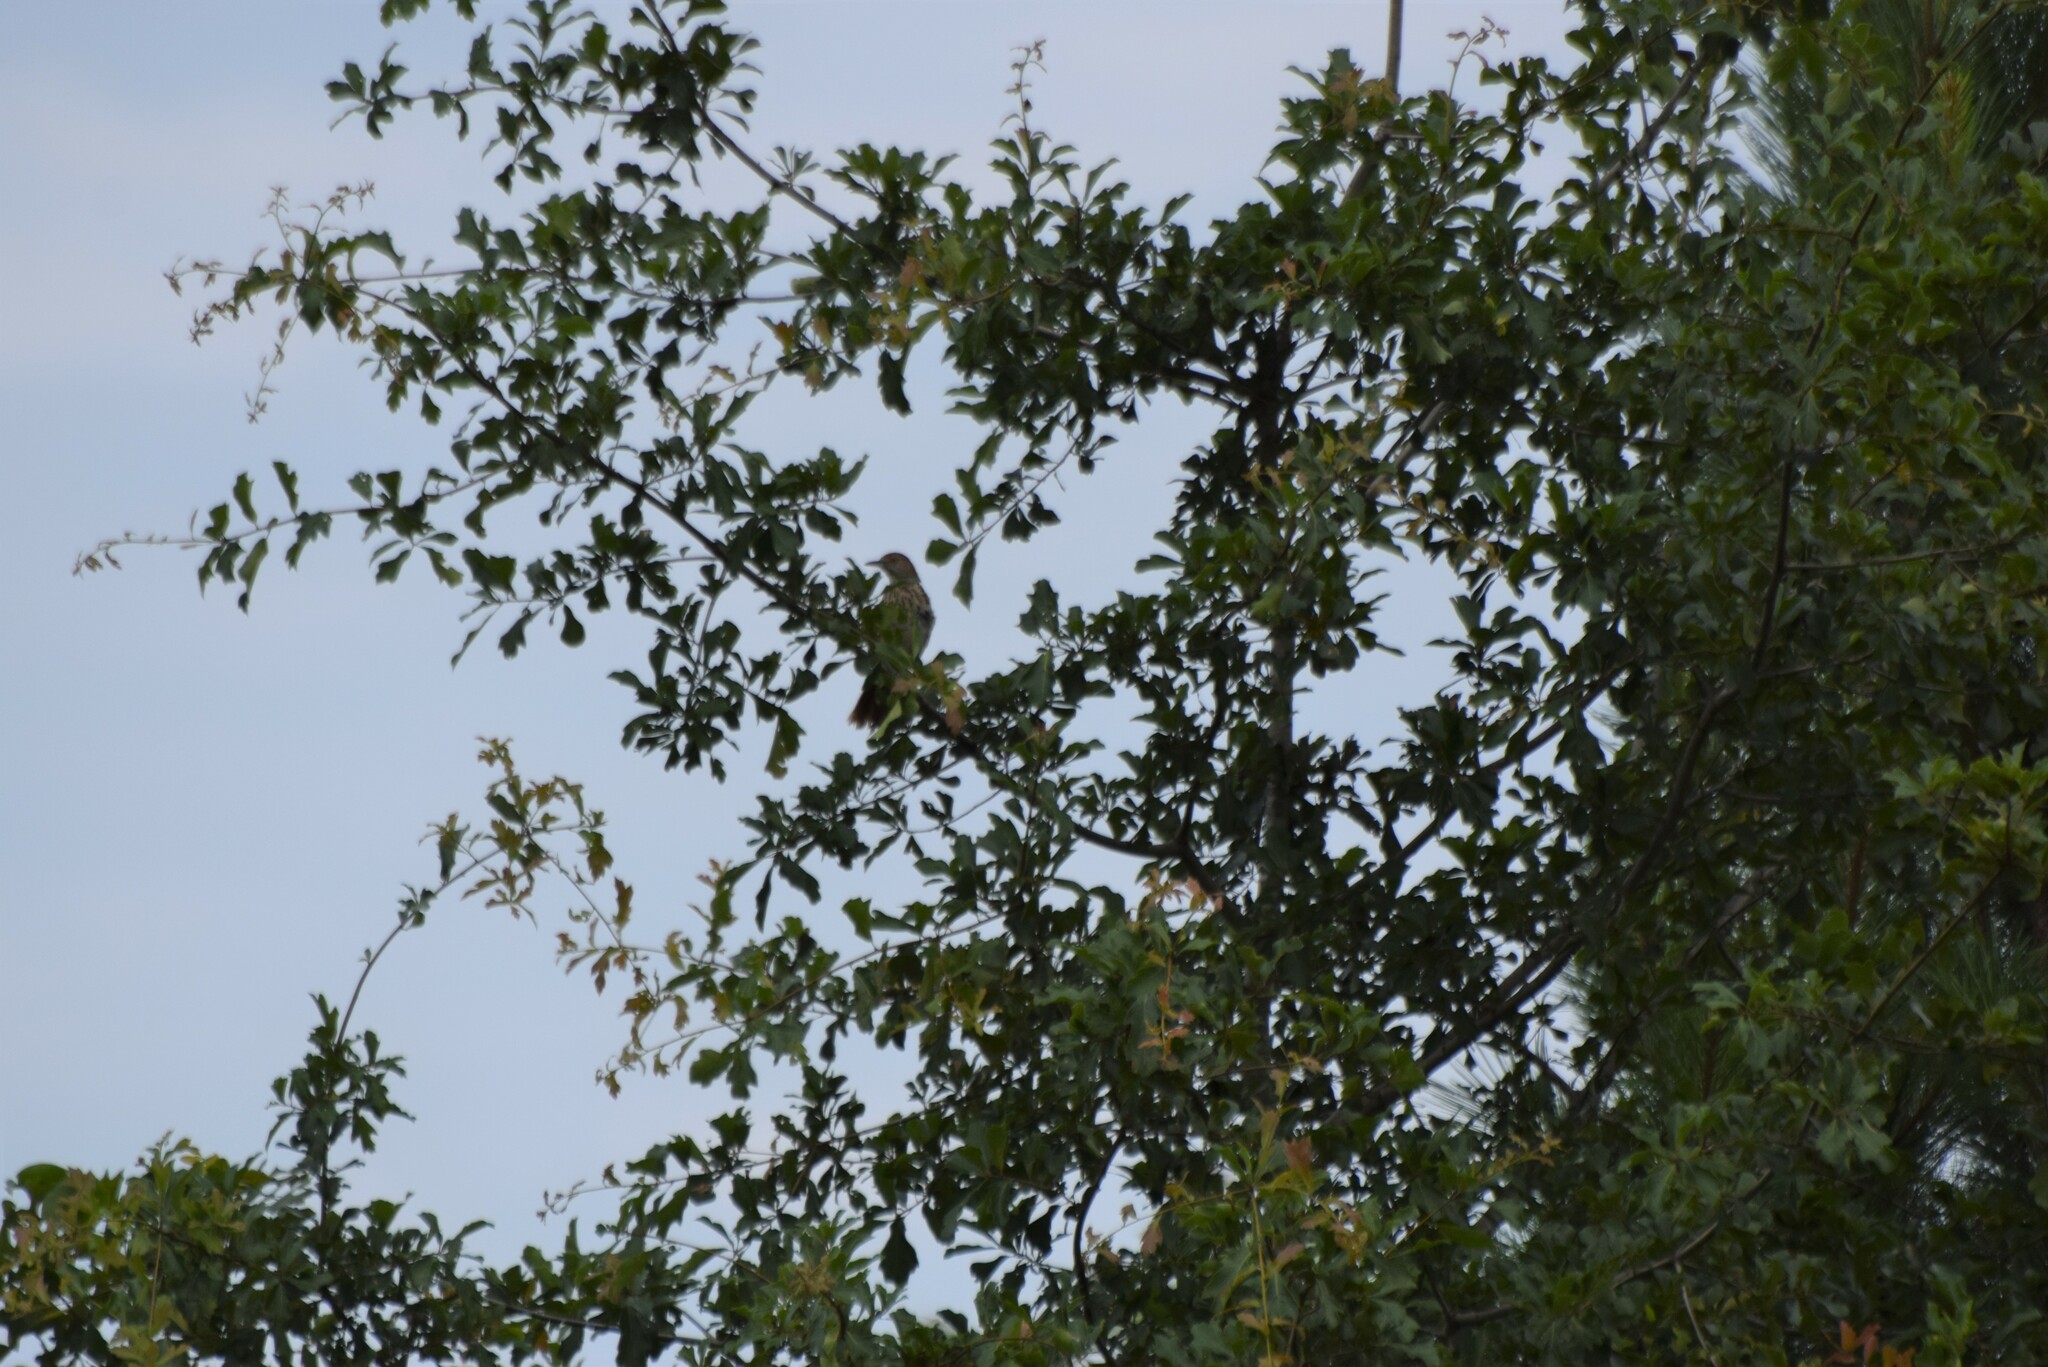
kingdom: Animalia
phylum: Chordata
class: Aves
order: Passeriformes
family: Mimidae
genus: Toxostoma
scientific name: Toxostoma rufum
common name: Brown thrasher
